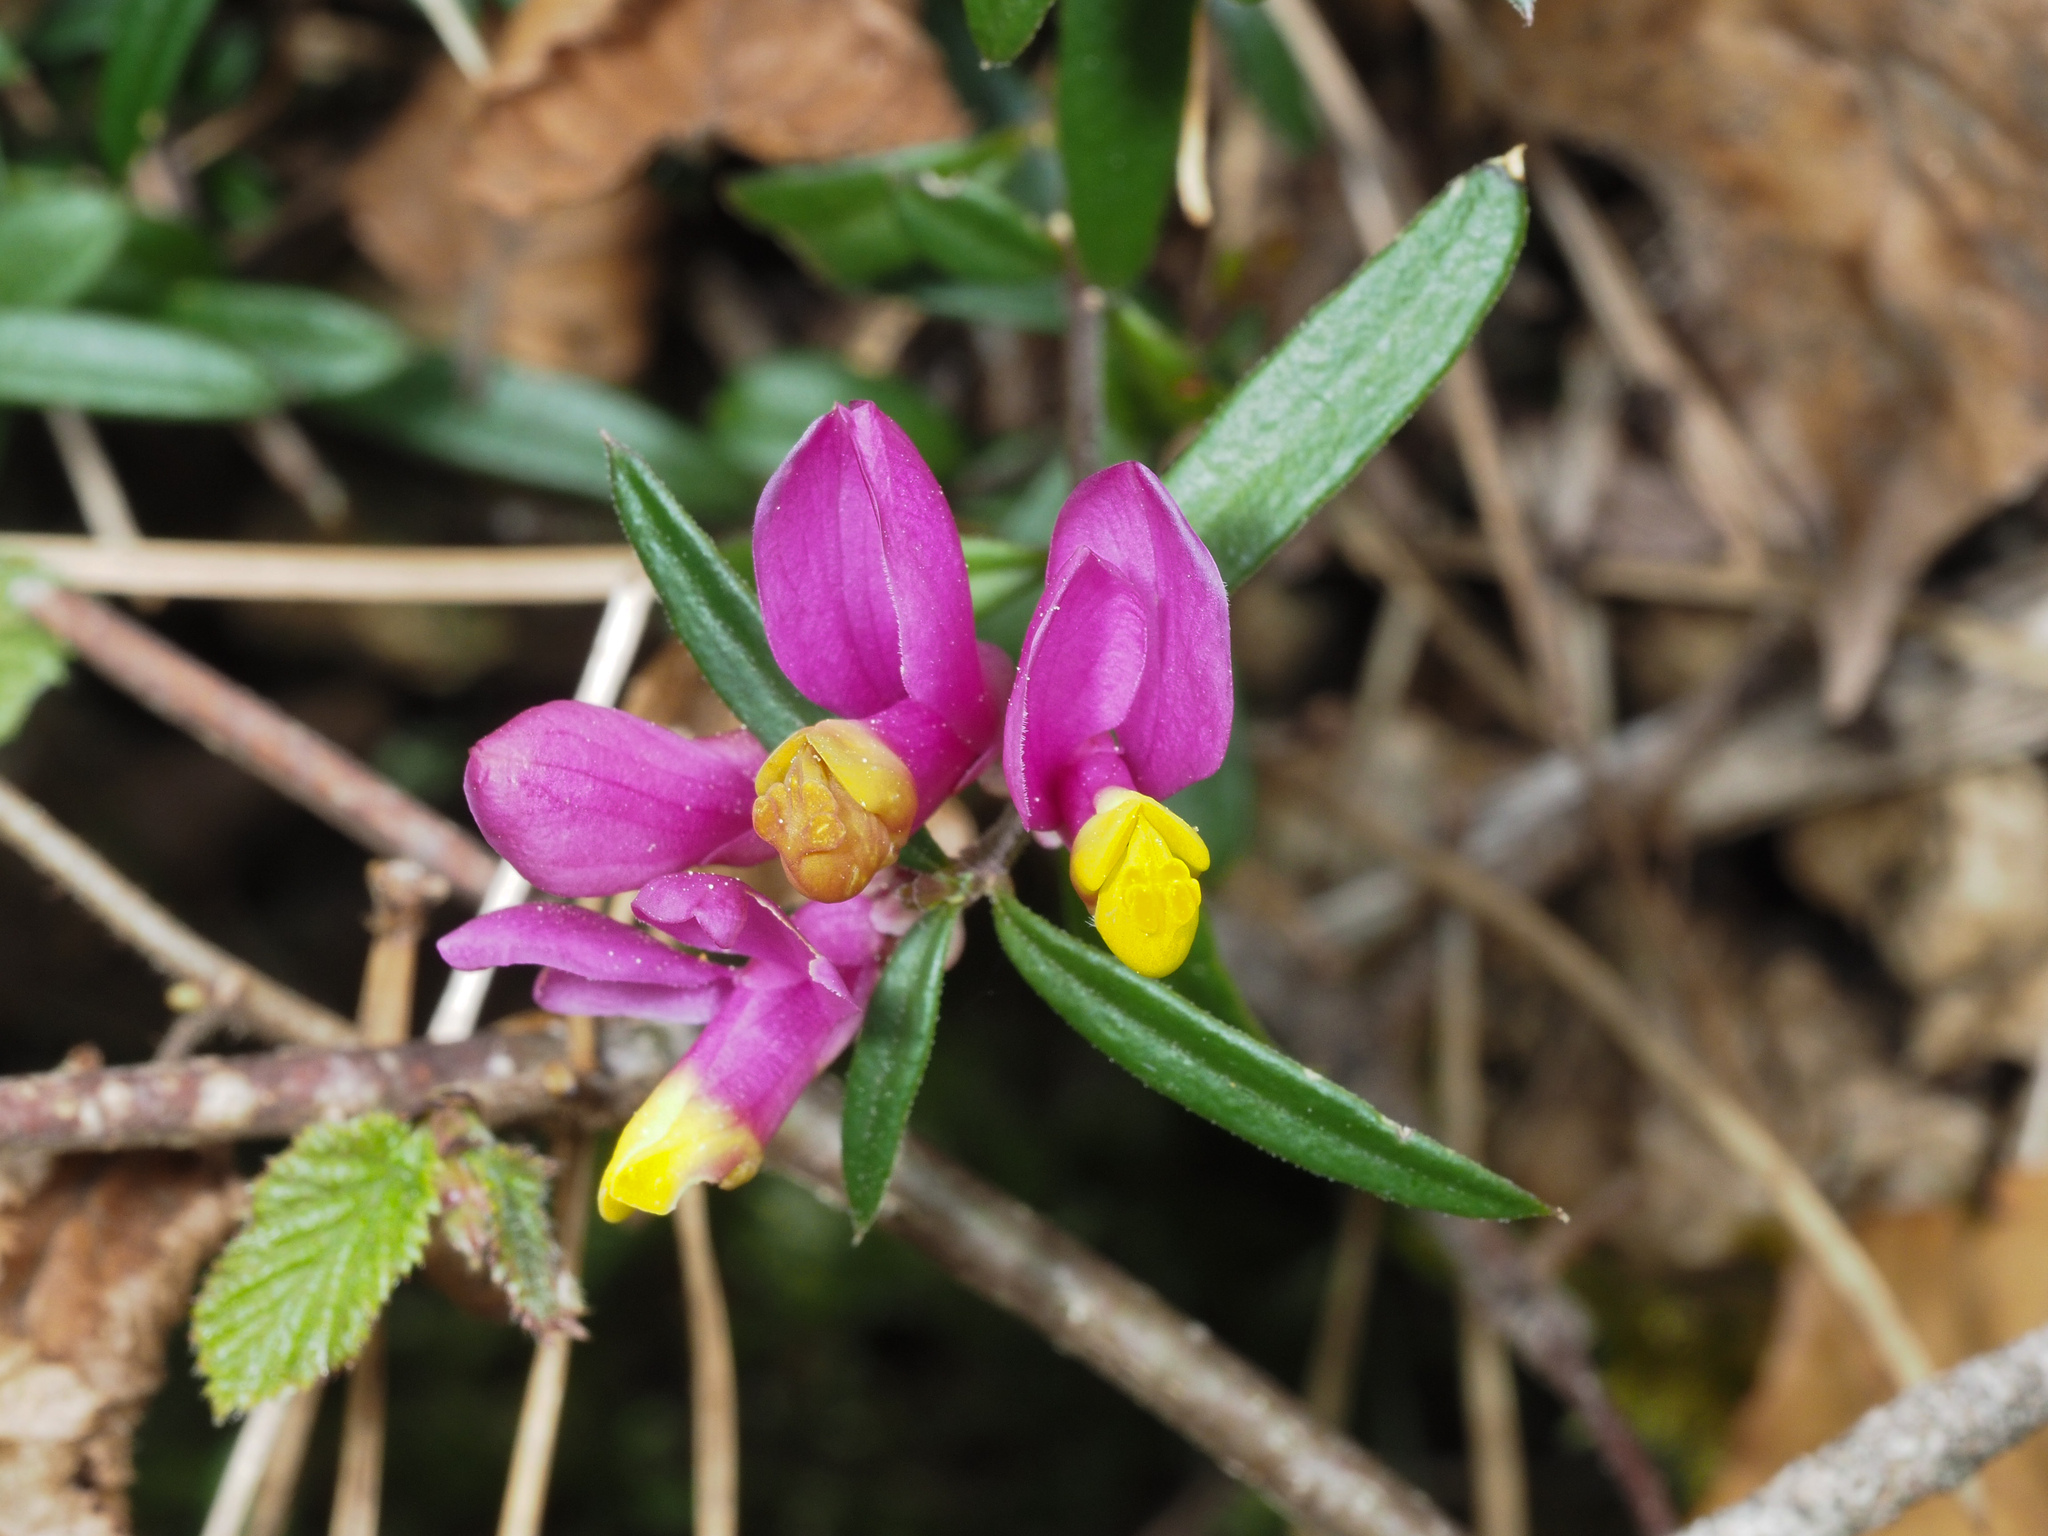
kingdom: Plantae
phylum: Tracheophyta
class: Magnoliopsida
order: Fabales
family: Polygalaceae
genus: Polygaloides
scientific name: Polygaloides chamaebuxus
